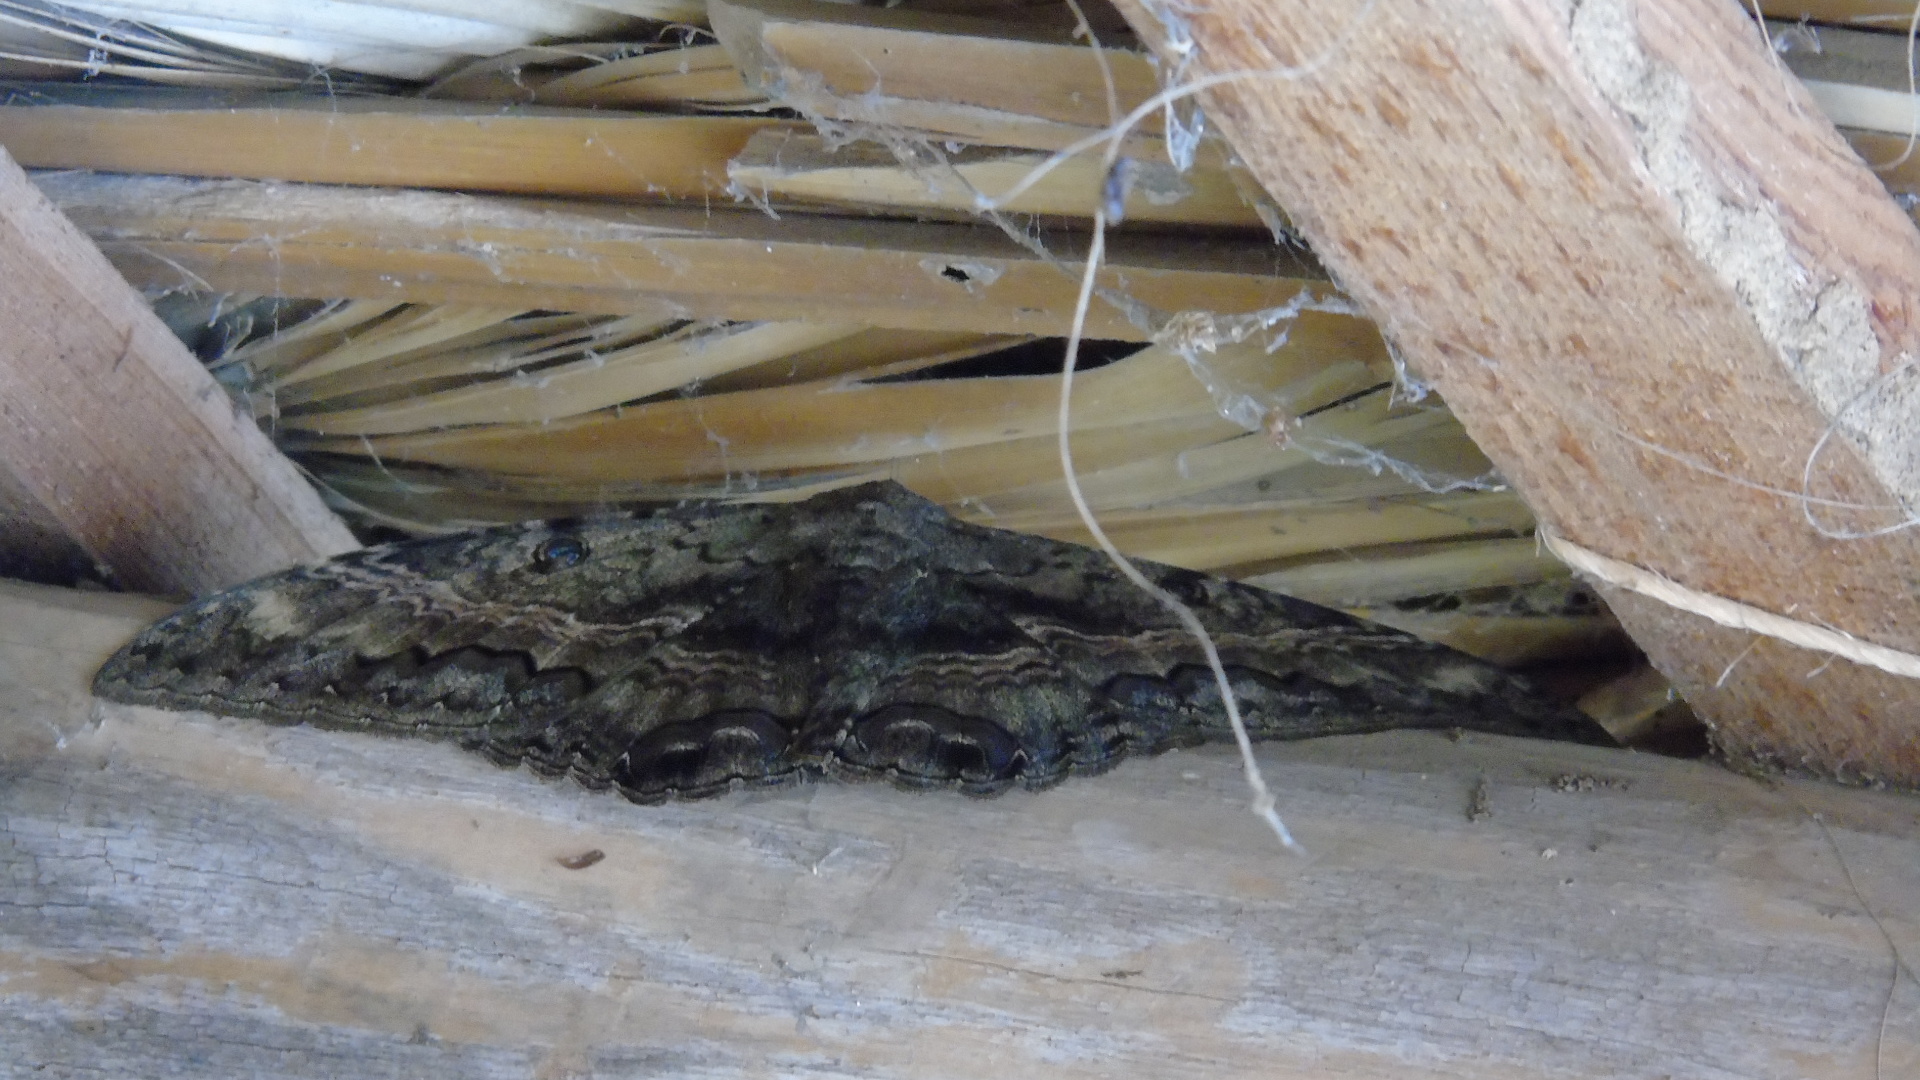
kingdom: Animalia
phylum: Arthropoda
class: Insecta
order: Lepidoptera
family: Erebidae
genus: Ascalapha
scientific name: Ascalapha odorata
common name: Black witch
